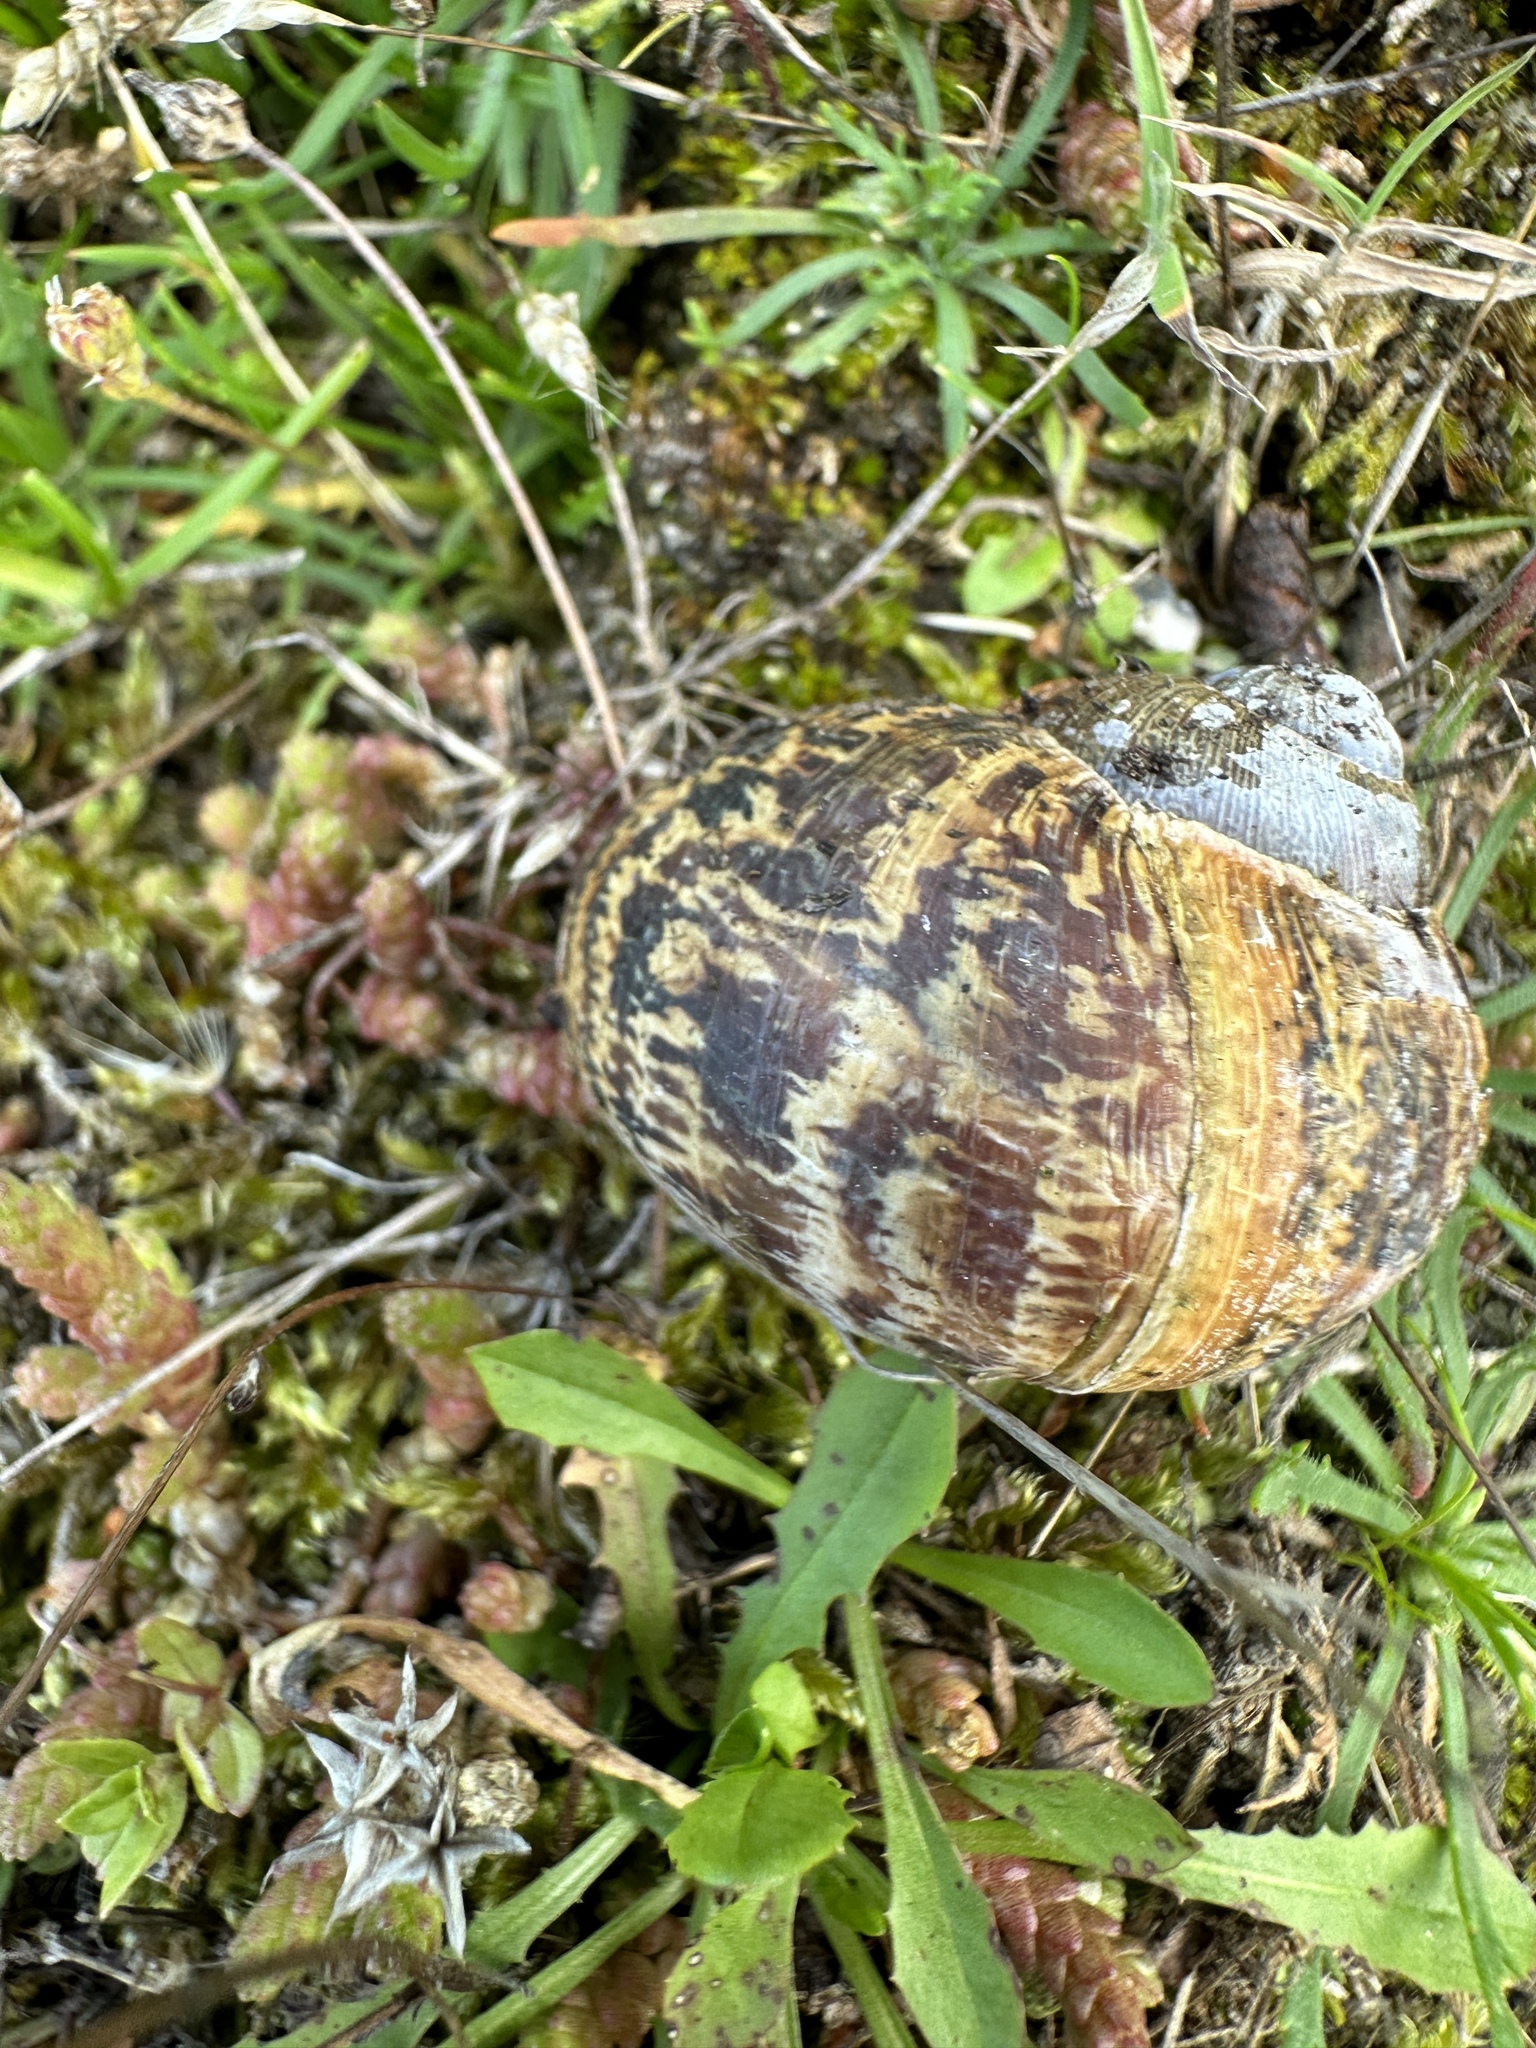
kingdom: Animalia
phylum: Mollusca
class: Gastropoda
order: Stylommatophora
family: Helicidae
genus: Cornu
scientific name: Cornu aspersum
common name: Brown garden snail
